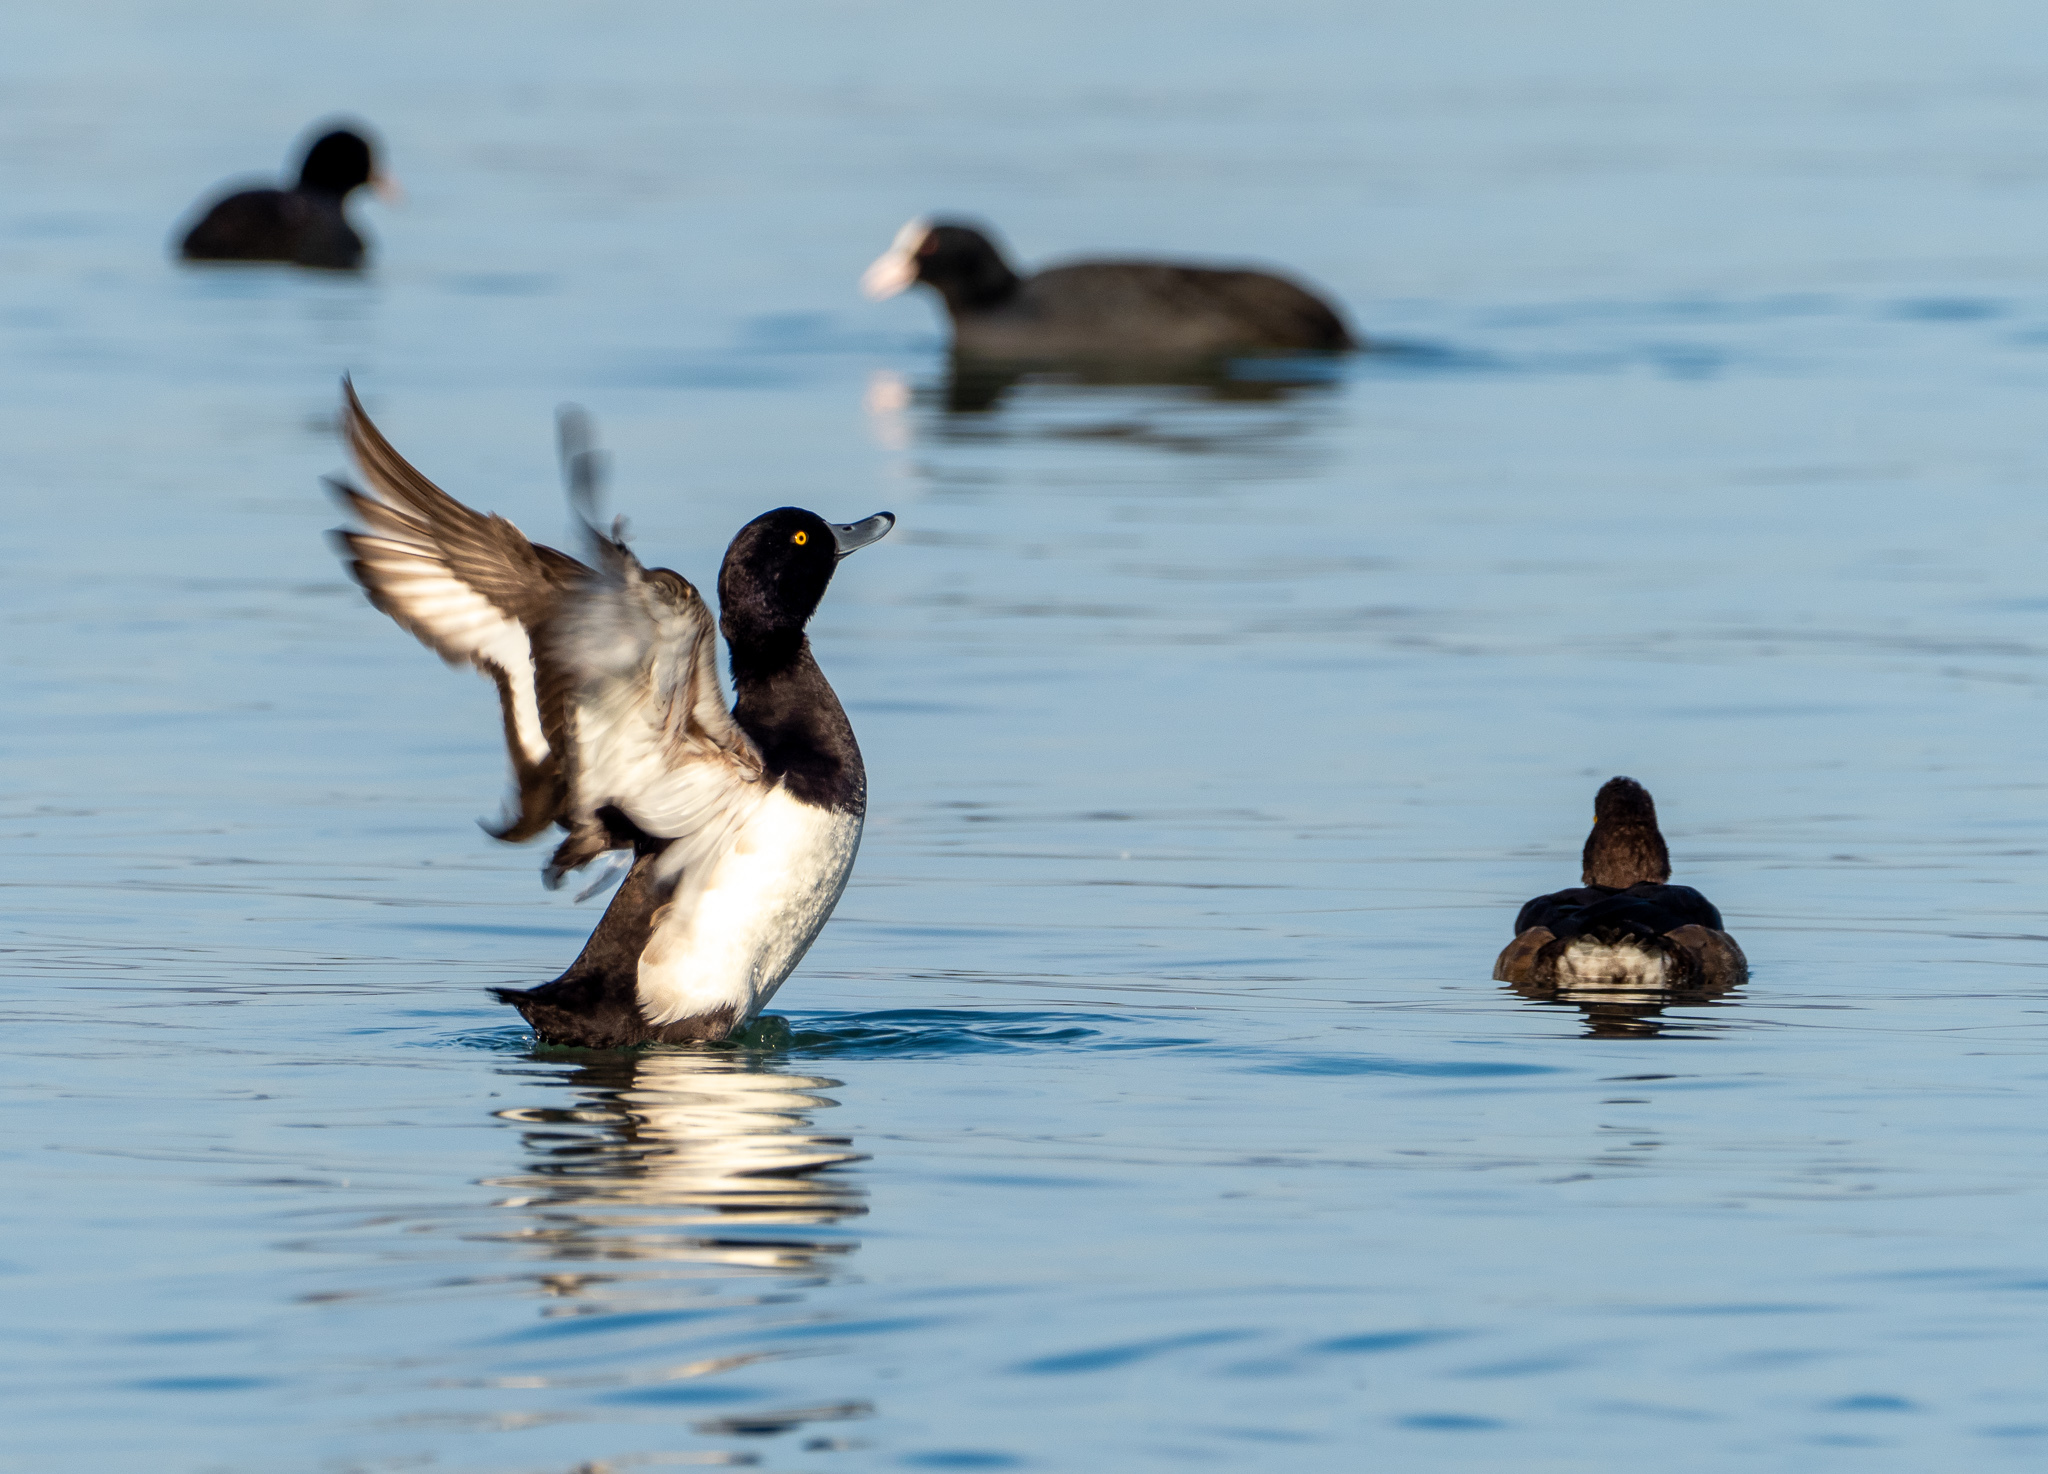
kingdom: Animalia
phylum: Chordata
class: Aves
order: Anseriformes
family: Anatidae
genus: Aythya
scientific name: Aythya fuligula
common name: Tufted duck
